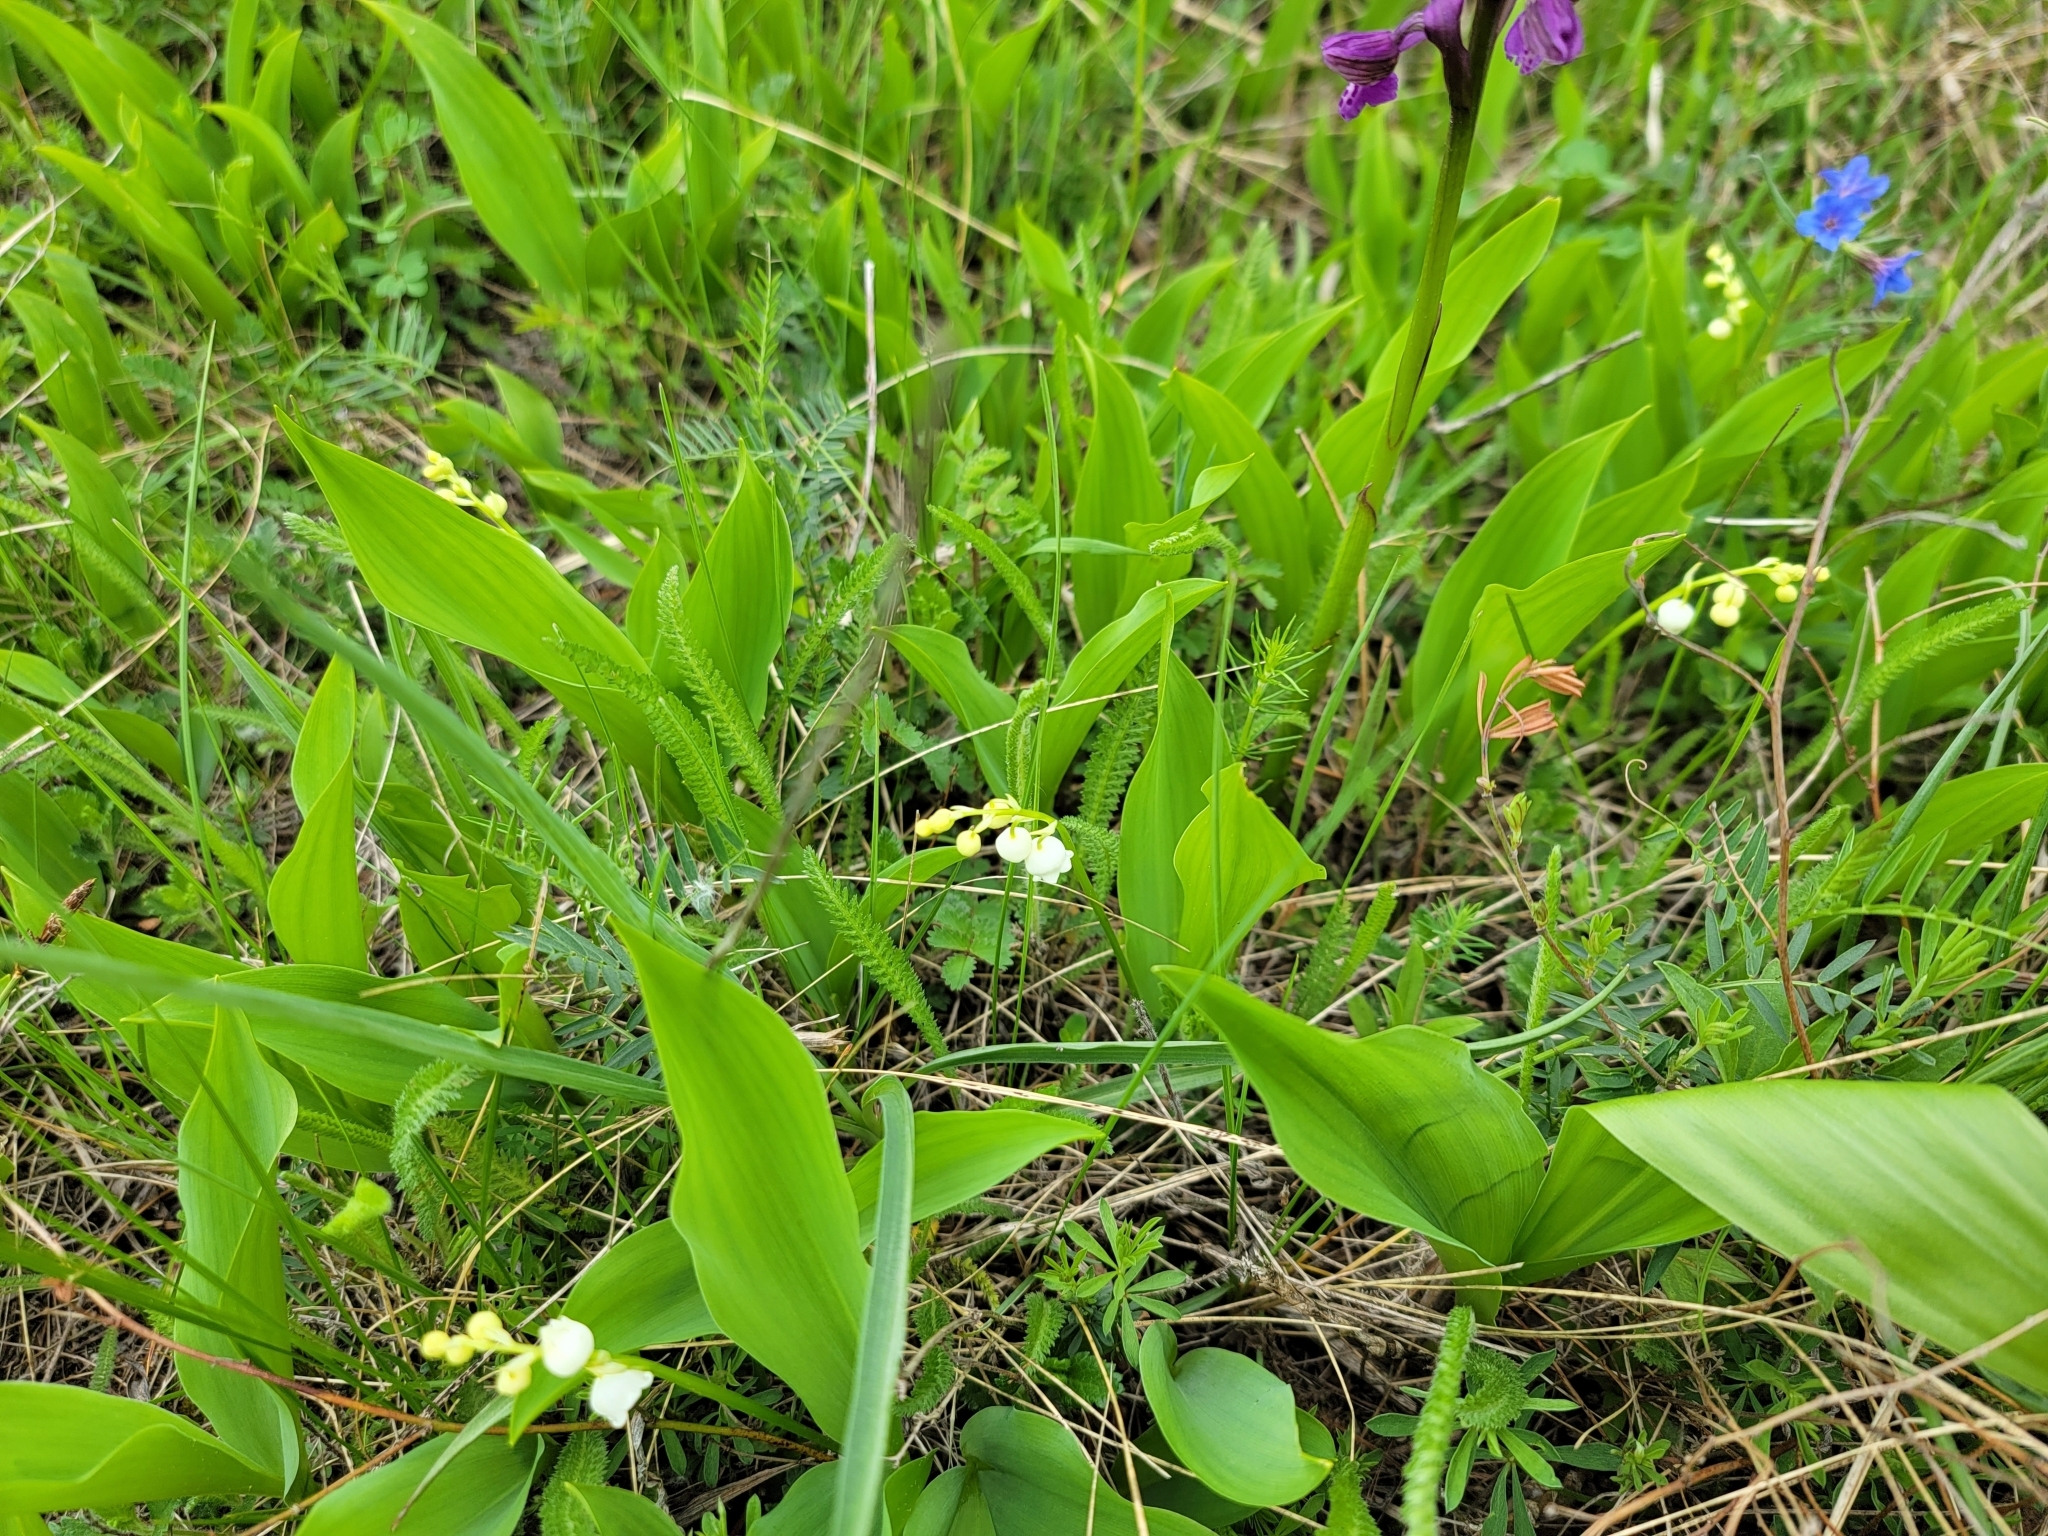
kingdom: Plantae
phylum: Tracheophyta
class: Liliopsida
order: Asparagales
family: Asparagaceae
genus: Convallaria
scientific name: Convallaria majalis
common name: Lily-of-the-valley
